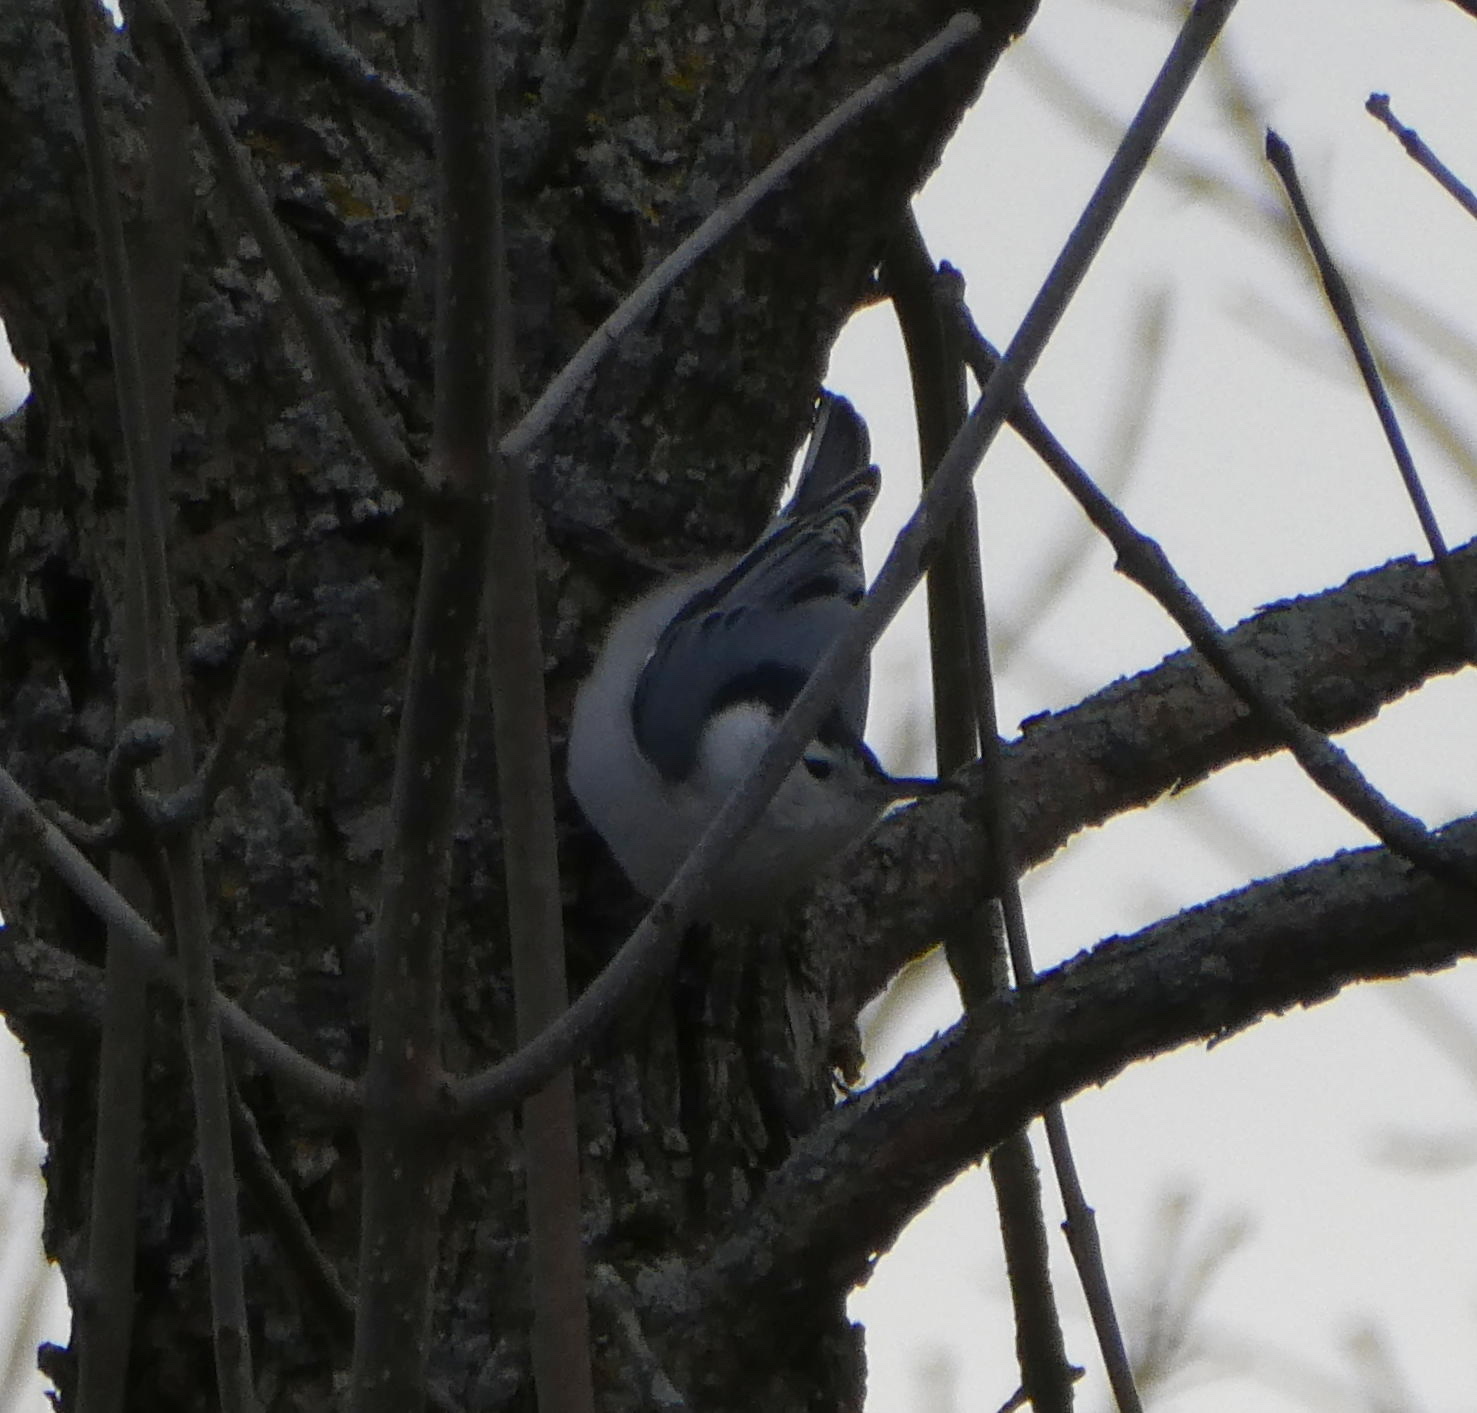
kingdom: Animalia
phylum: Chordata
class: Aves
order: Passeriformes
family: Sittidae
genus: Sitta
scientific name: Sitta carolinensis
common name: White-breasted nuthatch
